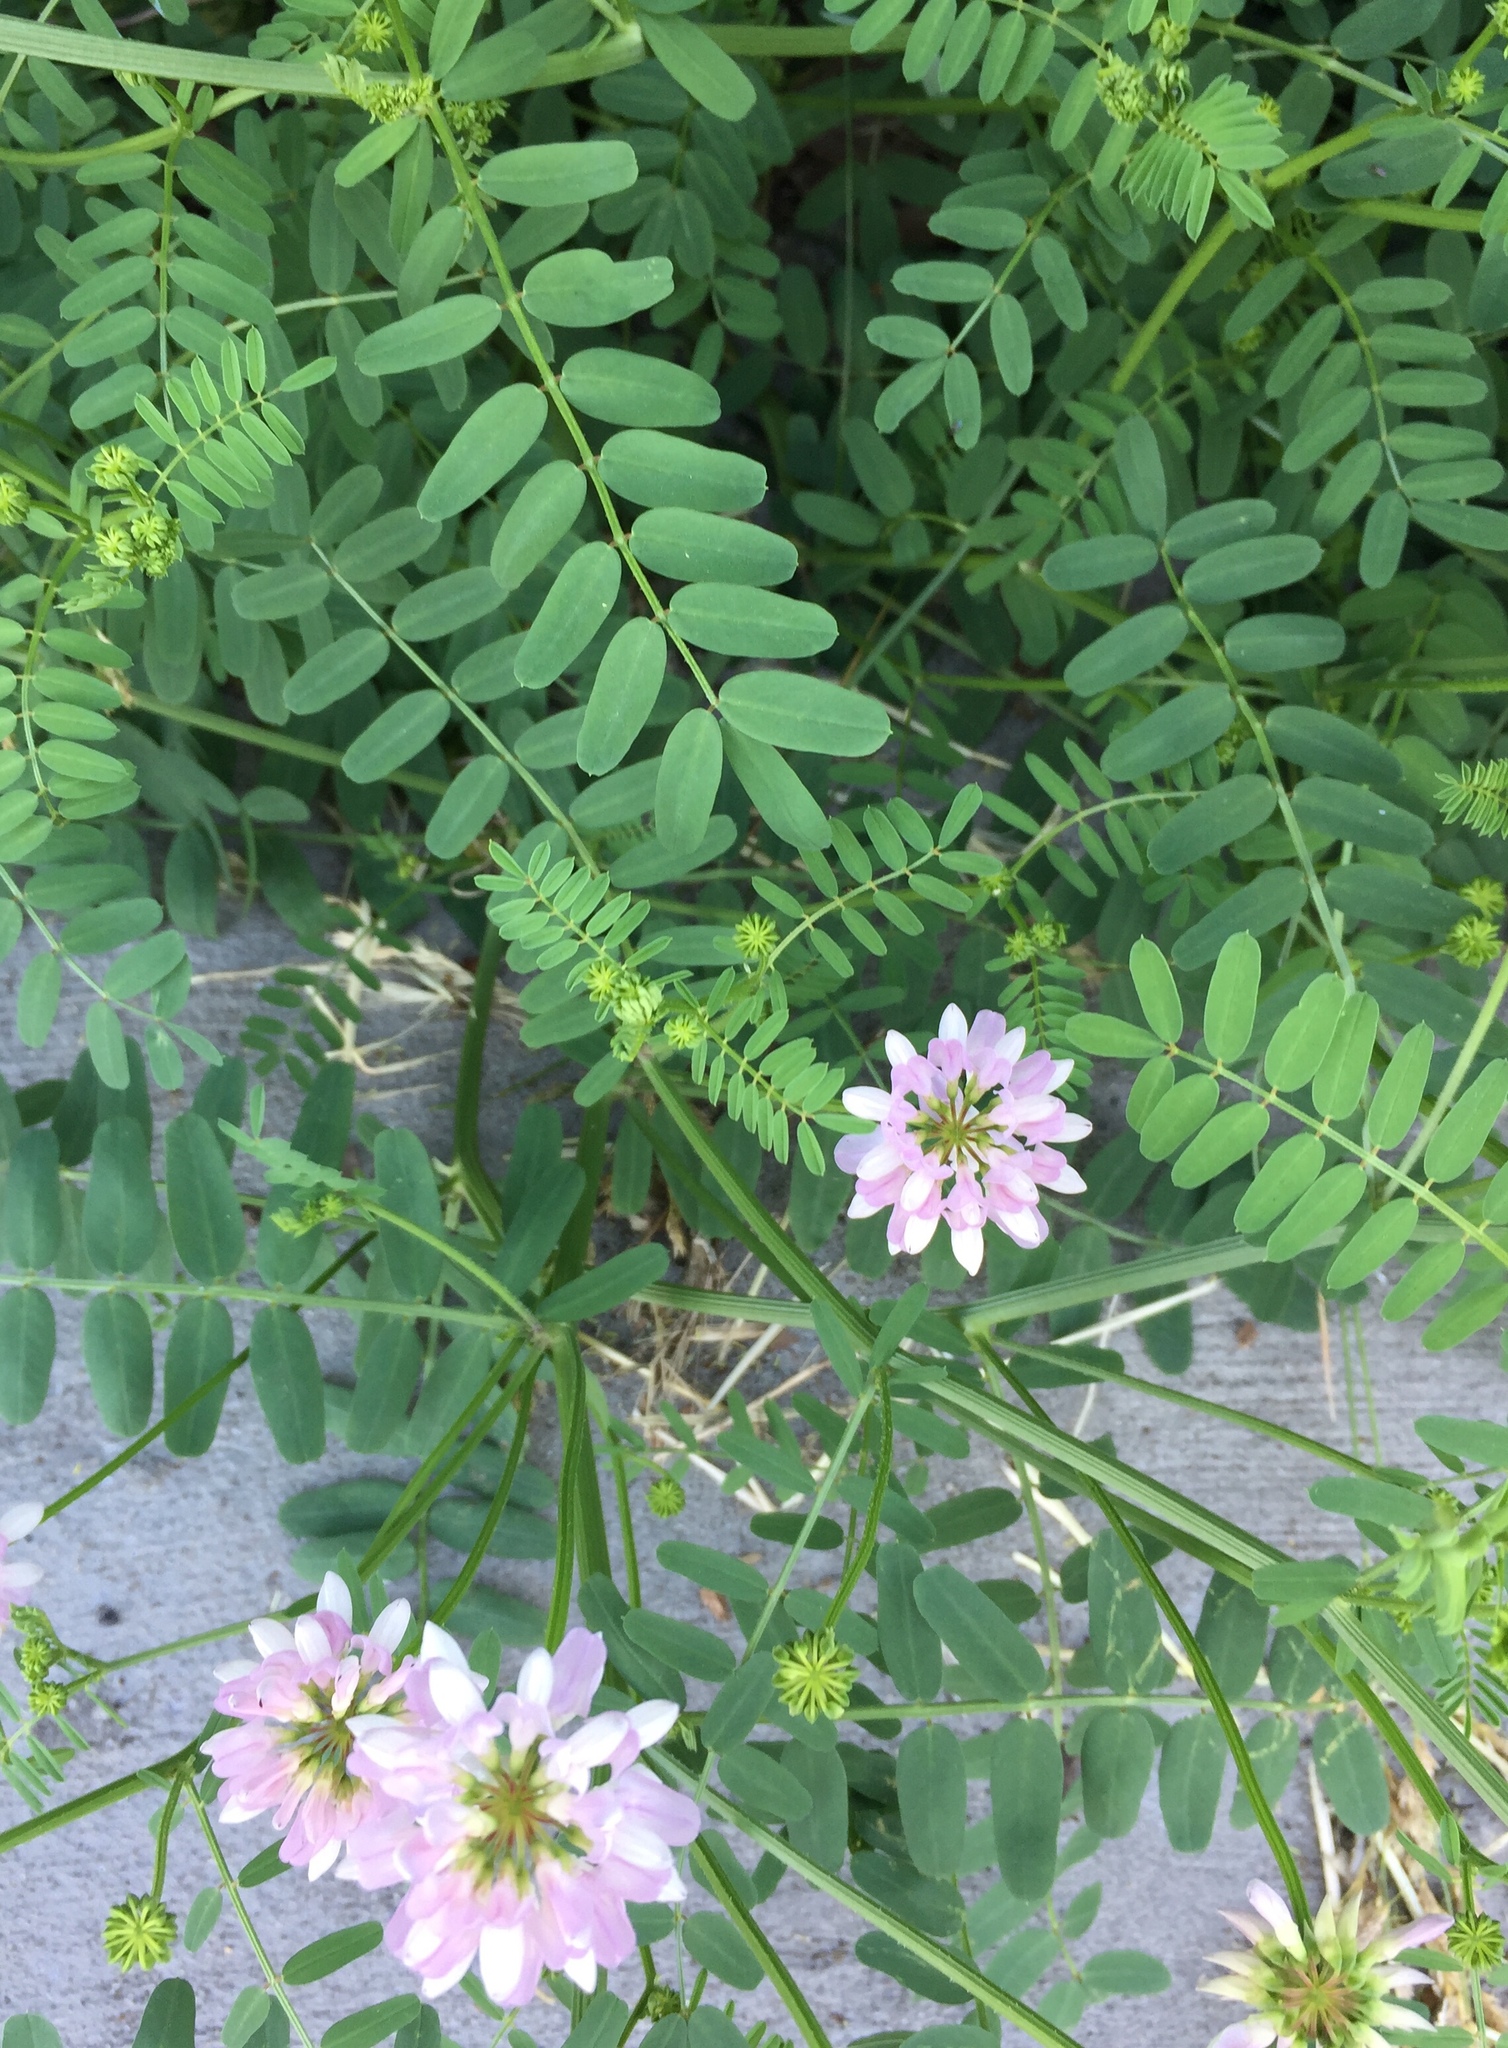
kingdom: Plantae
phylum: Tracheophyta
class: Magnoliopsida
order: Fabales
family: Fabaceae
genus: Coronilla
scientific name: Coronilla varia
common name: Crownvetch
